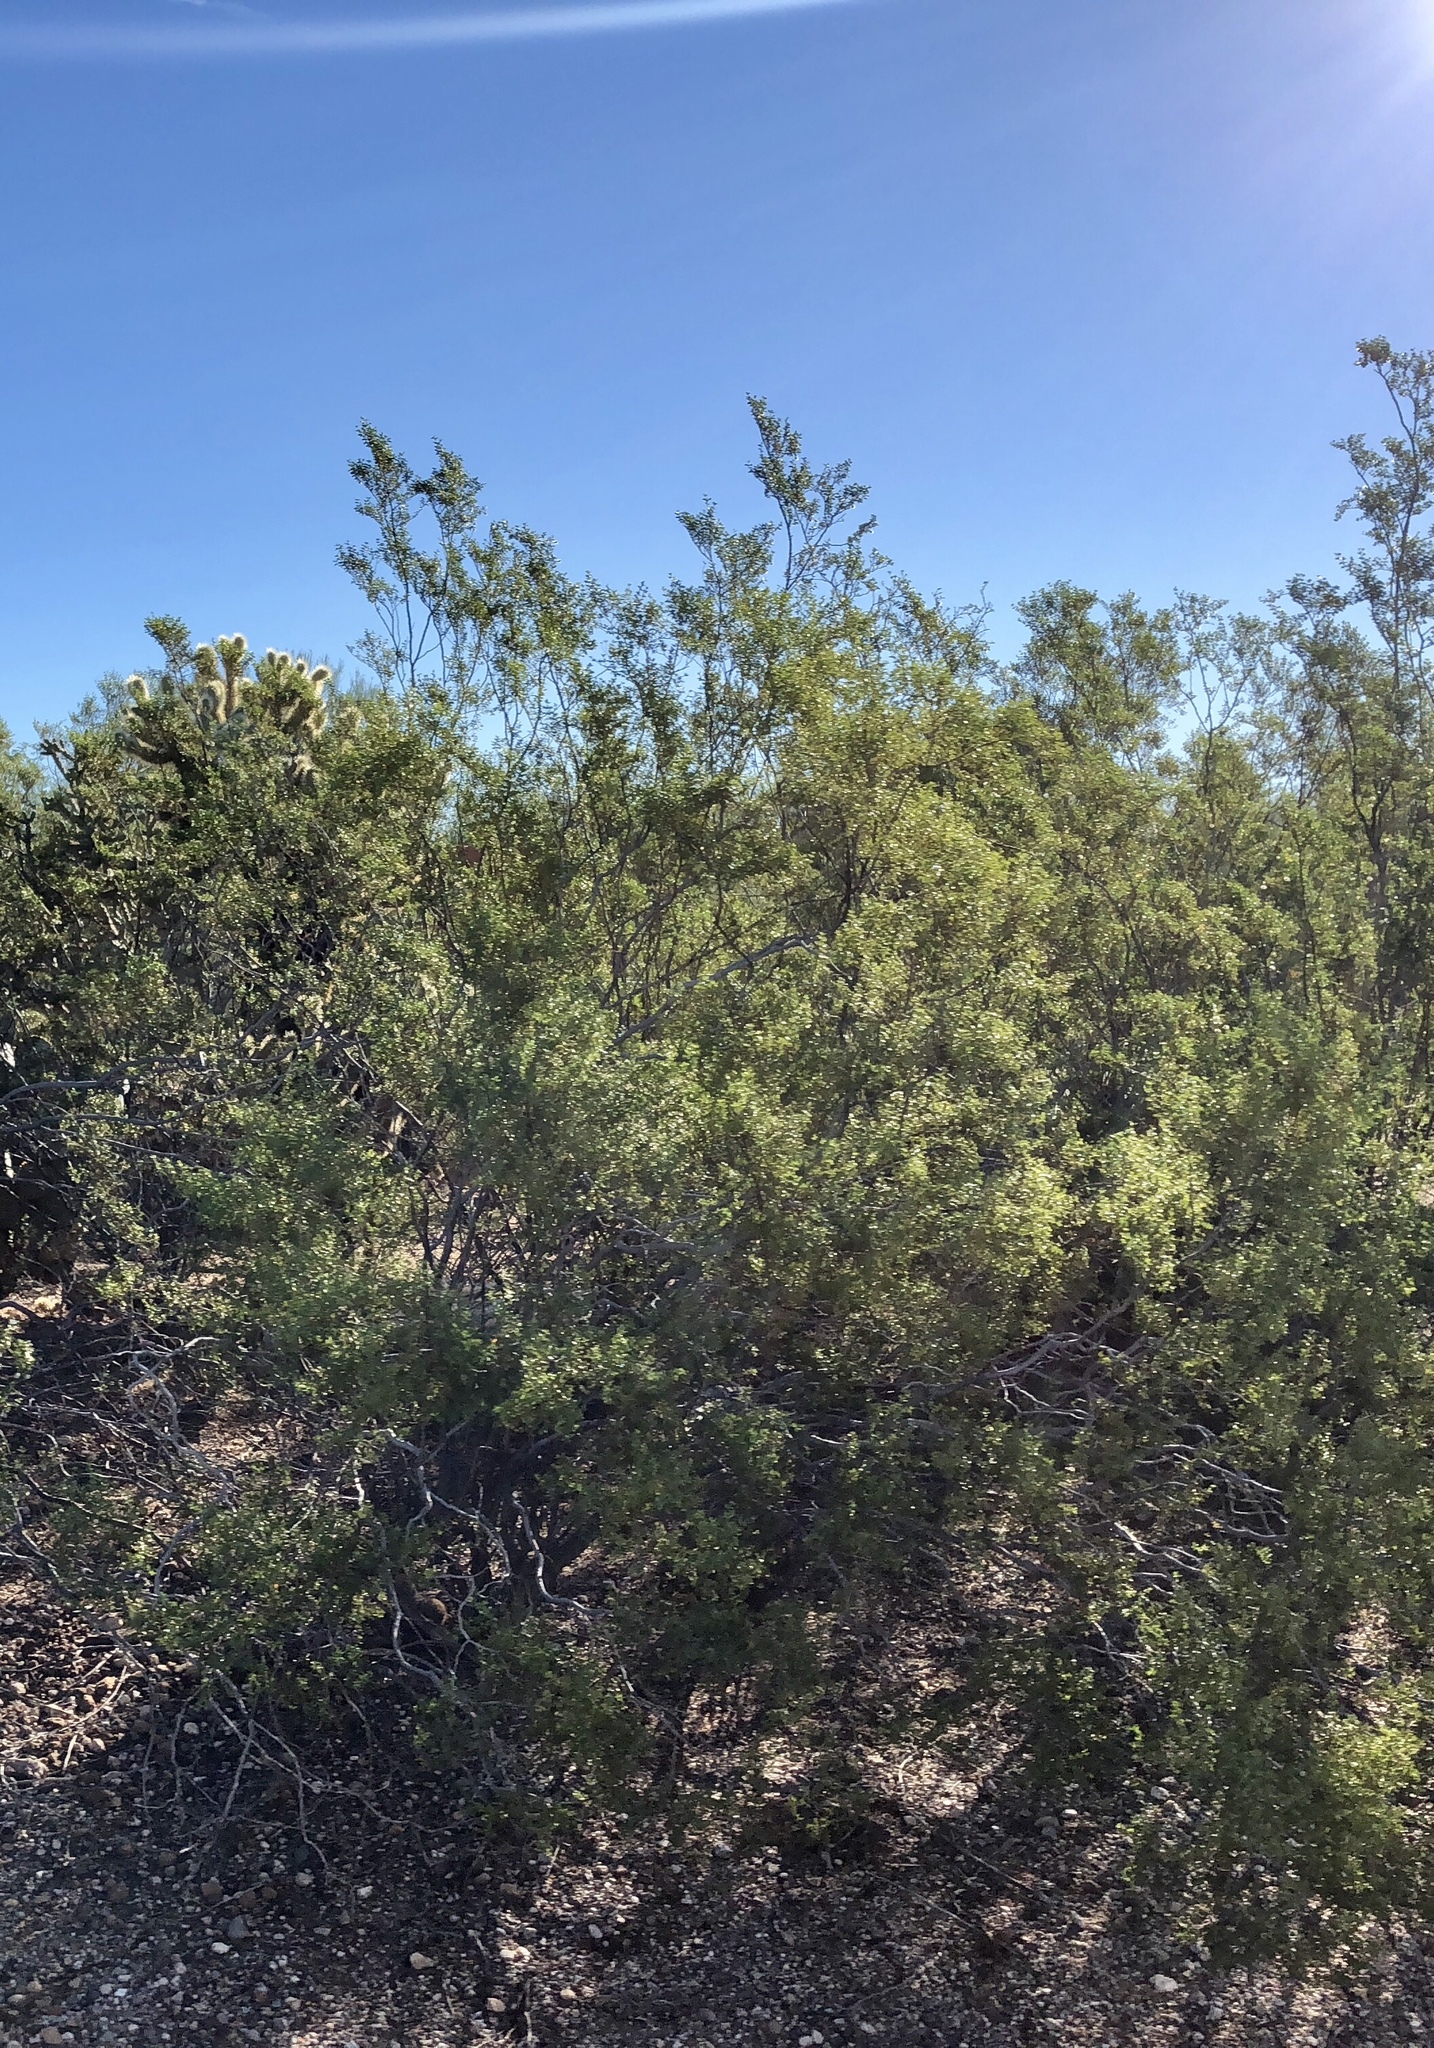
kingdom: Plantae
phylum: Tracheophyta
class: Magnoliopsida
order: Zygophyllales
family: Zygophyllaceae
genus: Larrea
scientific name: Larrea tridentata
